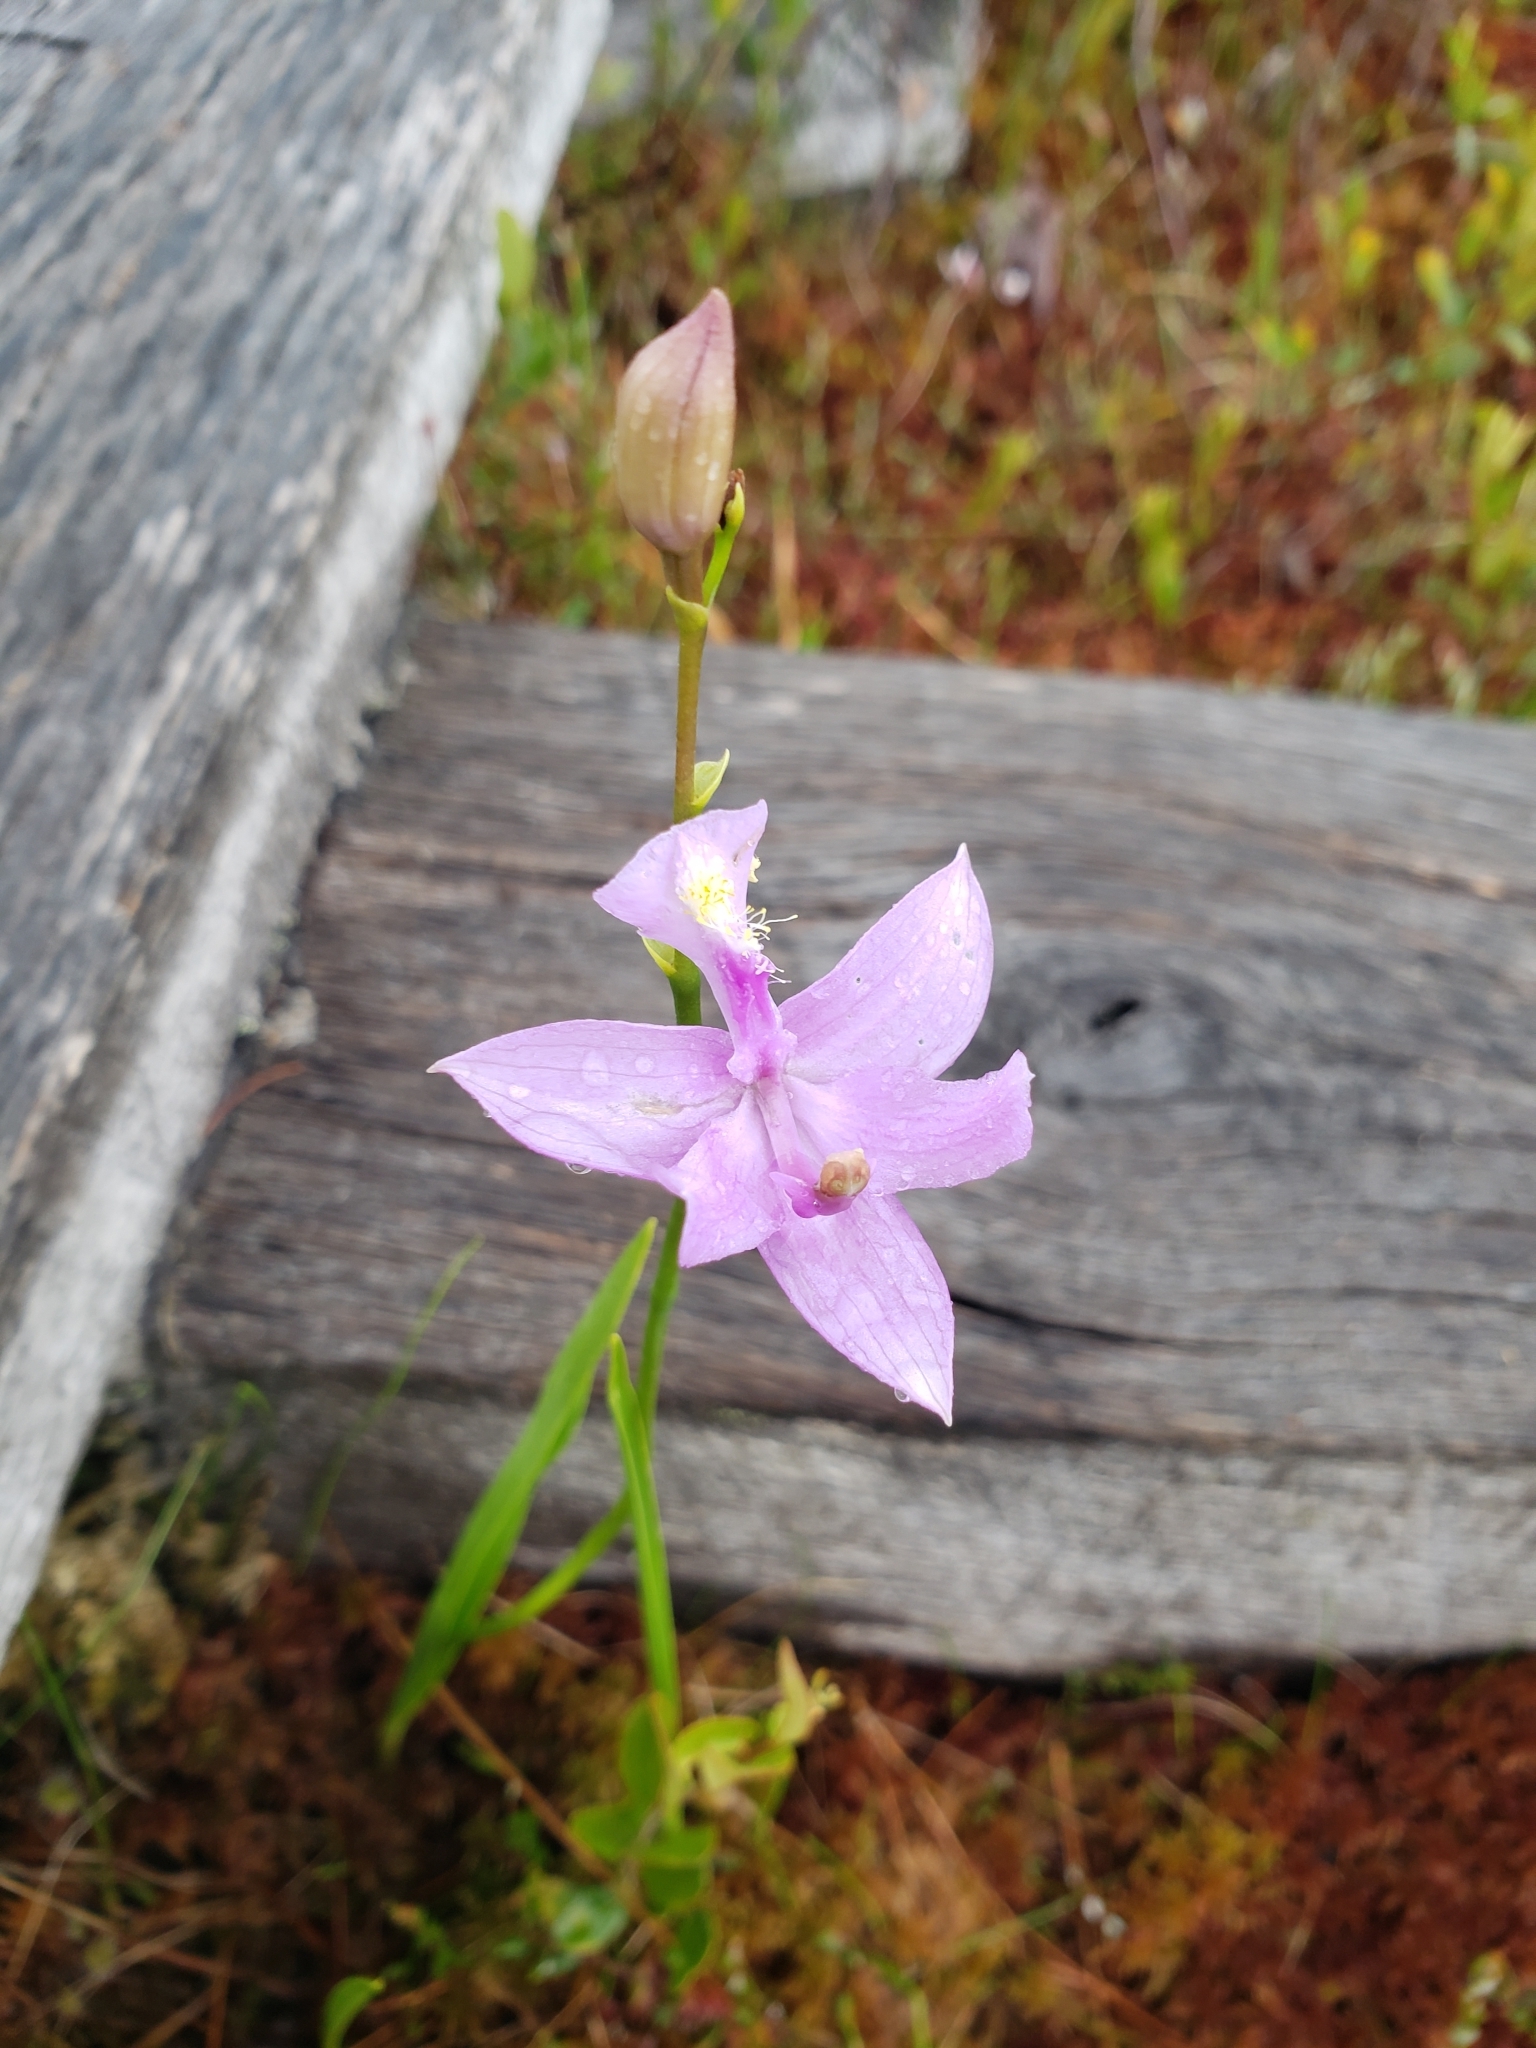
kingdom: Plantae
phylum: Tracheophyta
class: Liliopsida
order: Asparagales
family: Orchidaceae
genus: Calopogon
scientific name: Calopogon tuberosus
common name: Grass-pink
